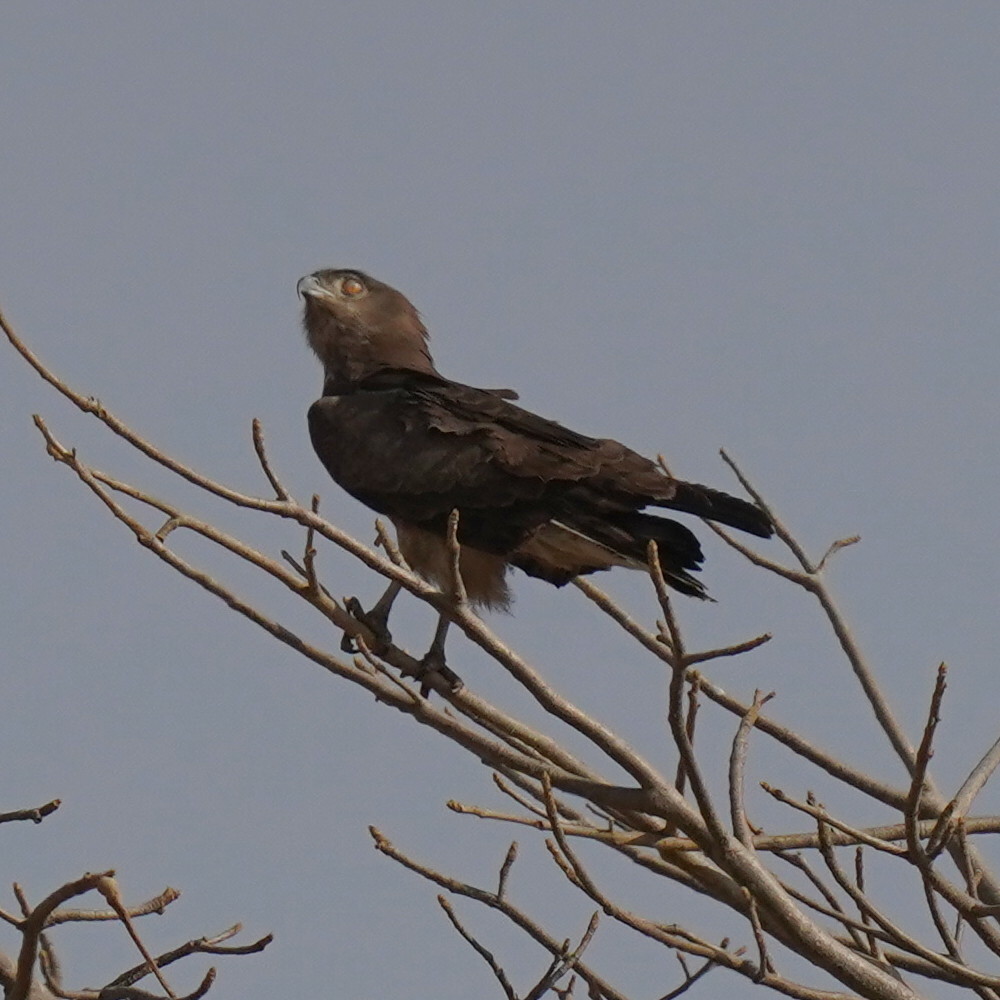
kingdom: Animalia
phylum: Chordata
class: Aves
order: Accipitriformes
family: Accipitridae
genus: Circaetus
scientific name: Circaetus beaudouini
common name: Beaudouin's snake eagle
